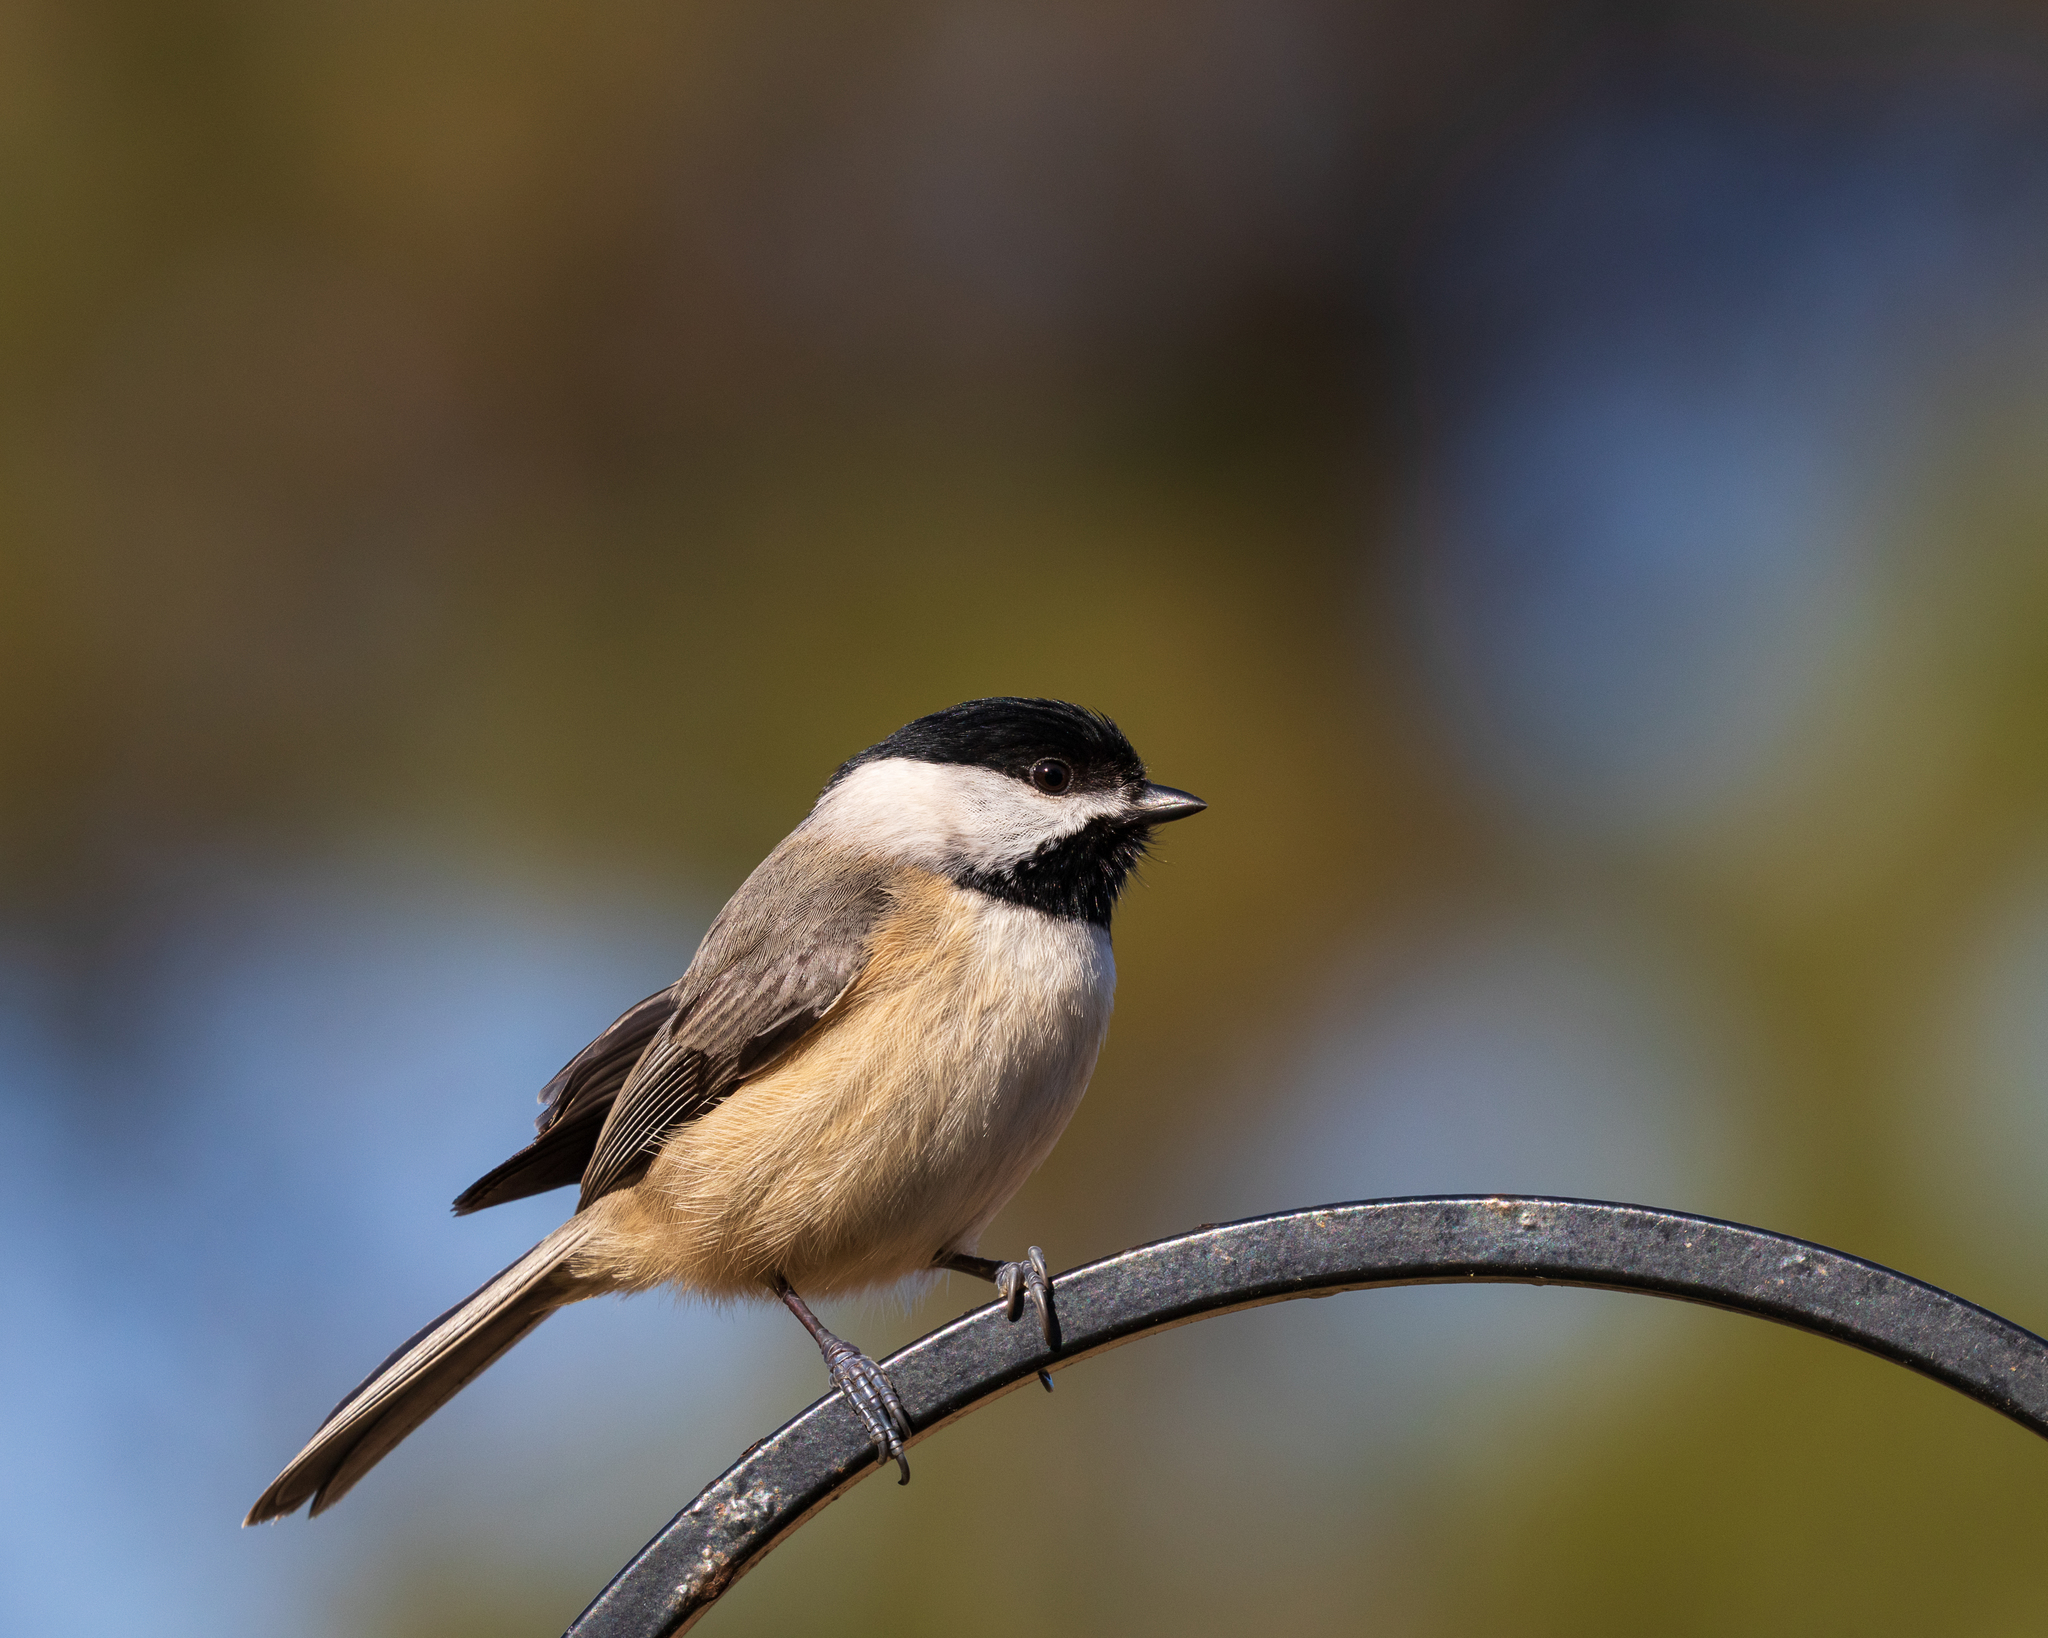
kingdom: Animalia
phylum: Chordata
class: Aves
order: Passeriformes
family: Paridae
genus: Poecile
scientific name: Poecile carolinensis
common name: Carolina chickadee
